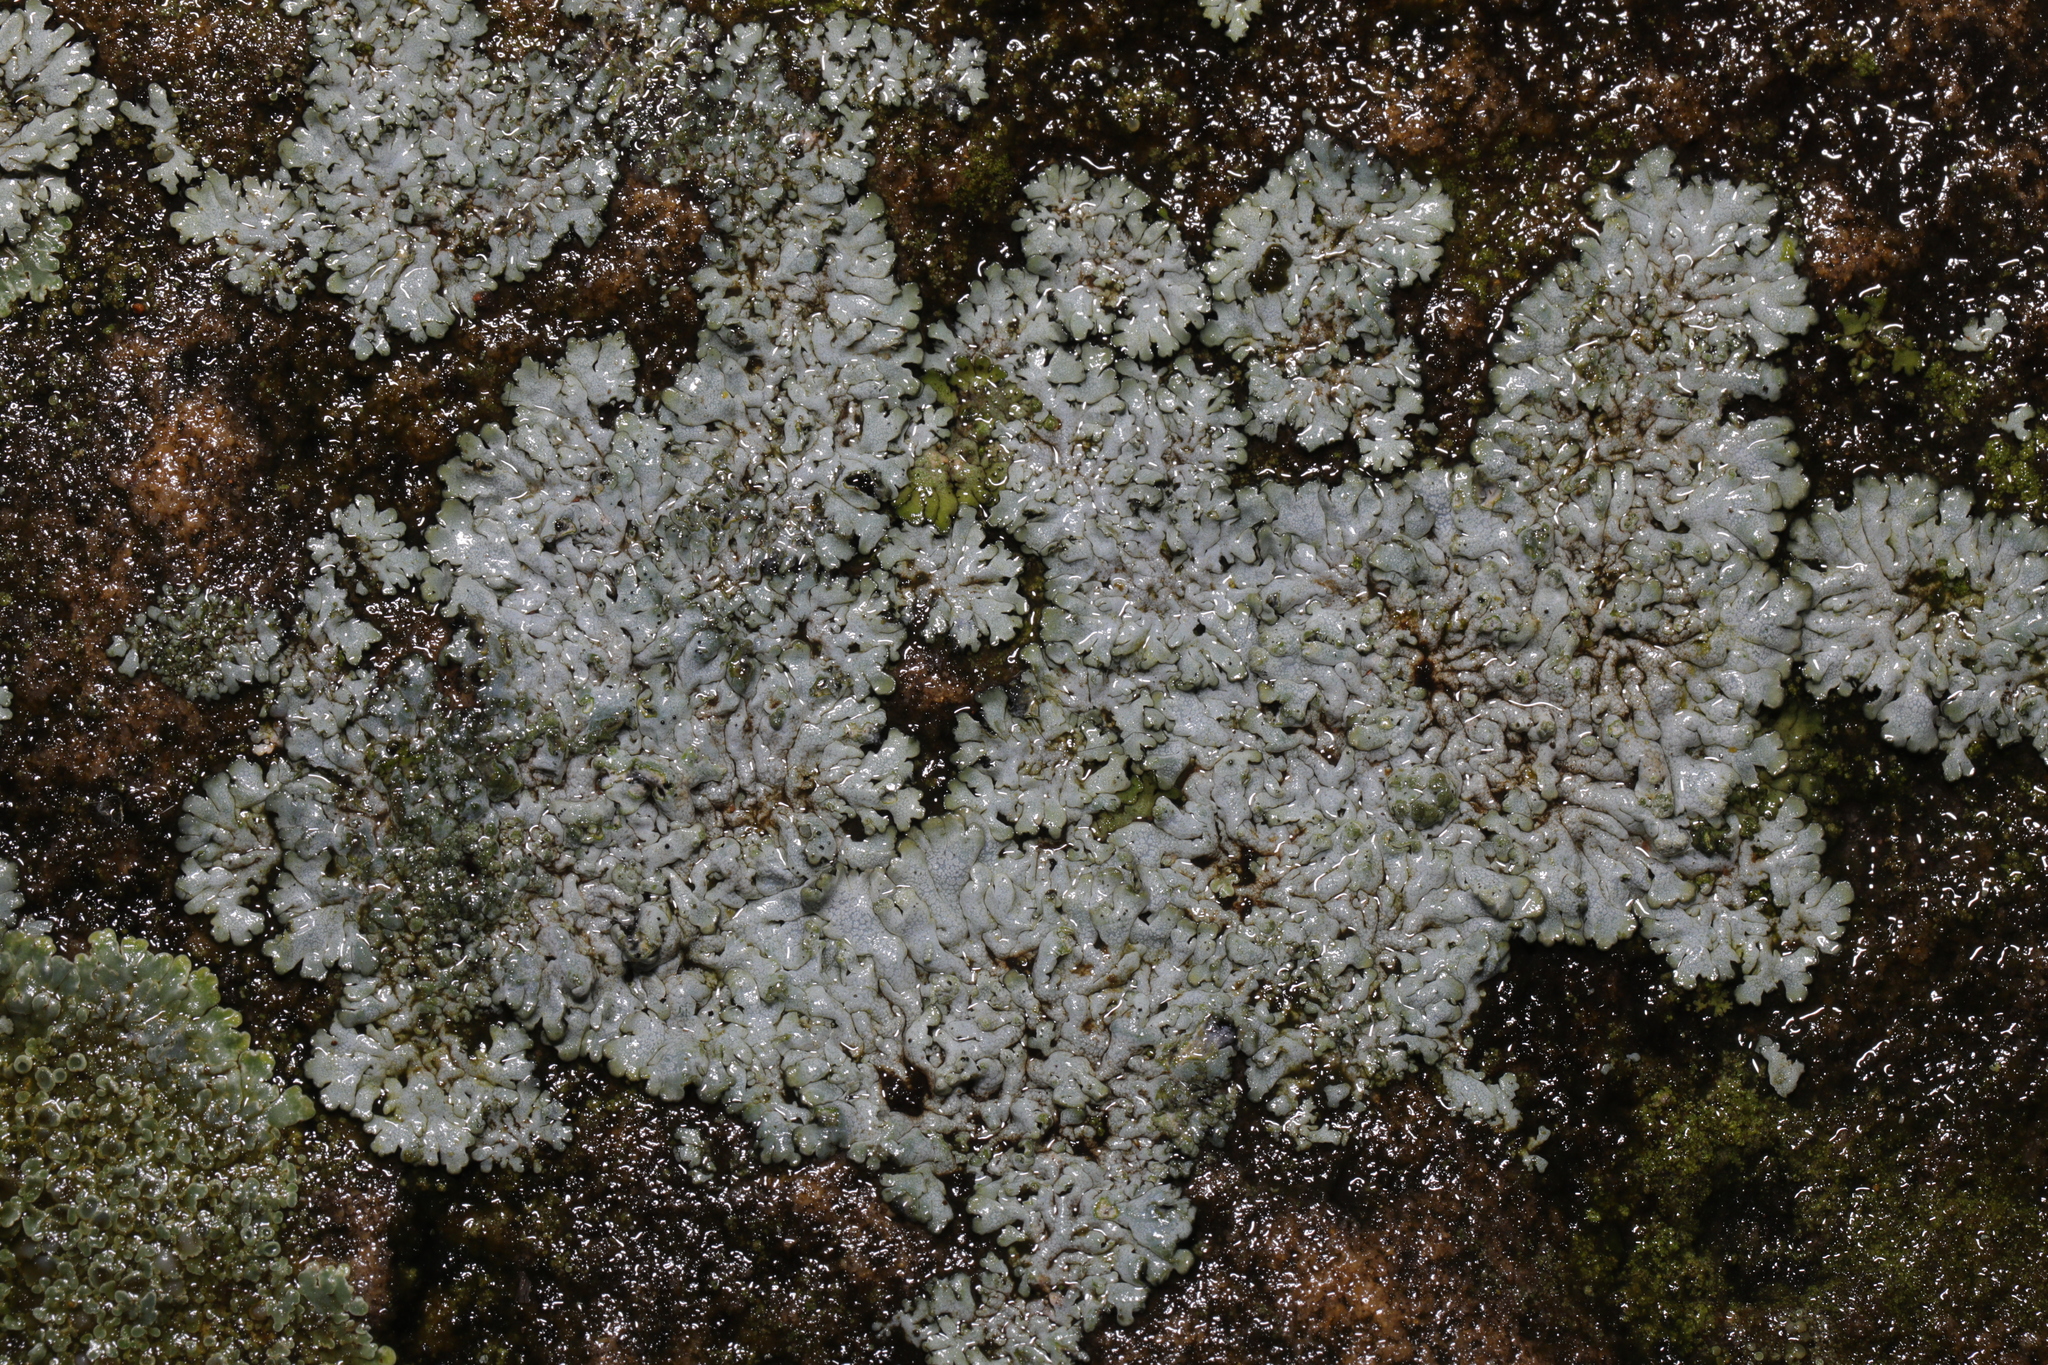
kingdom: Fungi
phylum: Ascomycota
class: Lecanoromycetes
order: Caliciales
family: Physciaceae
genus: Physcia
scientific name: Physcia caesia
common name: Blue-gray rosette lichen
